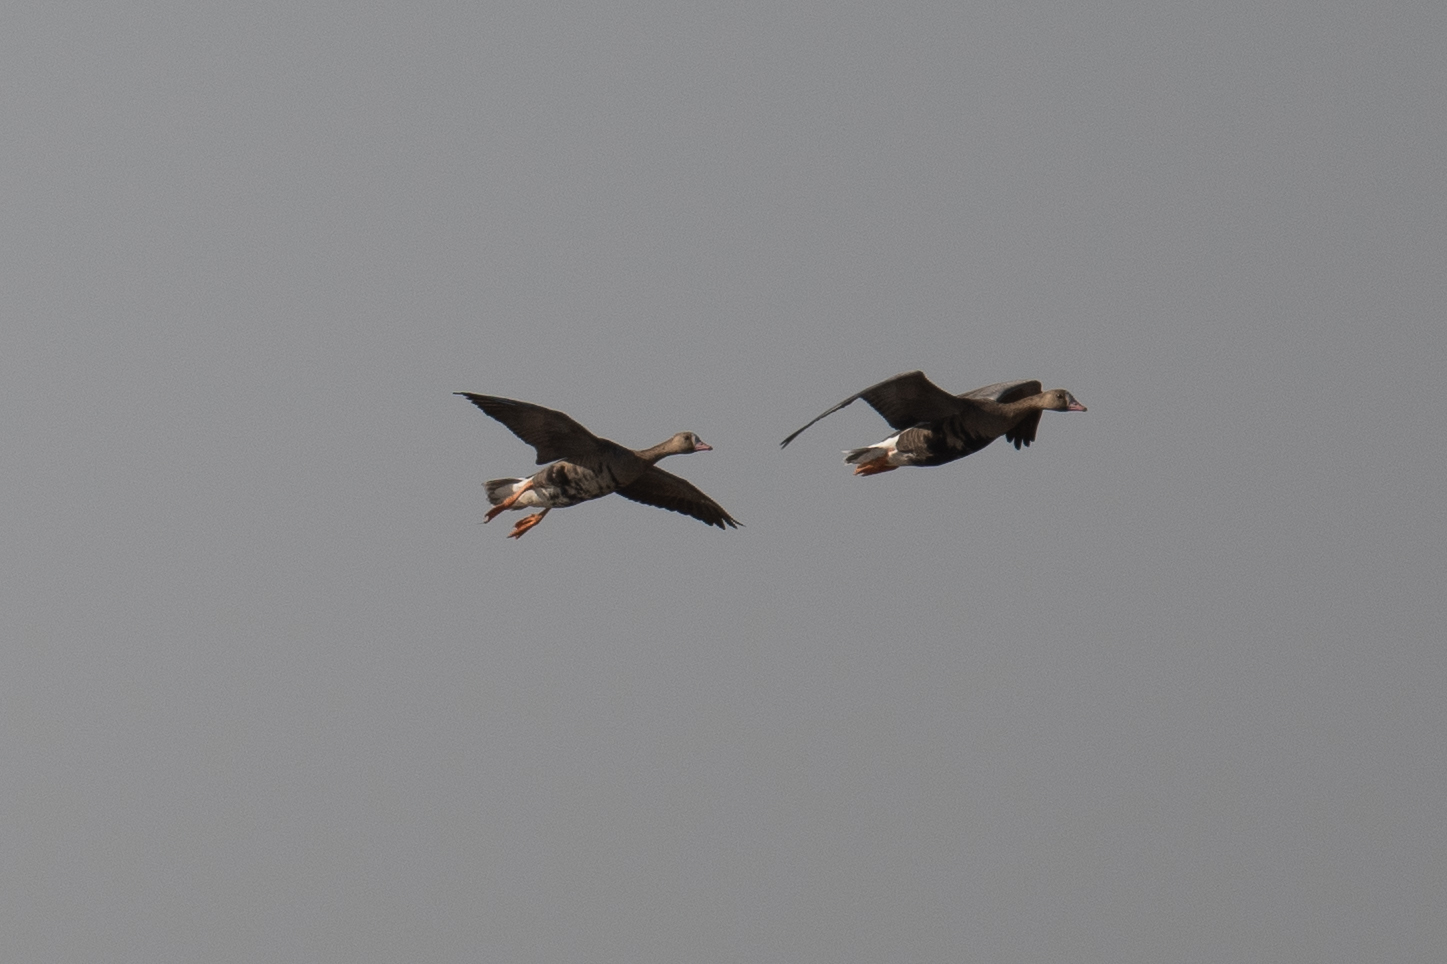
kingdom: Animalia
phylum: Chordata
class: Aves
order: Anseriformes
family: Anatidae
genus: Anser
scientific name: Anser albifrons
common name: Greater white-fronted goose
